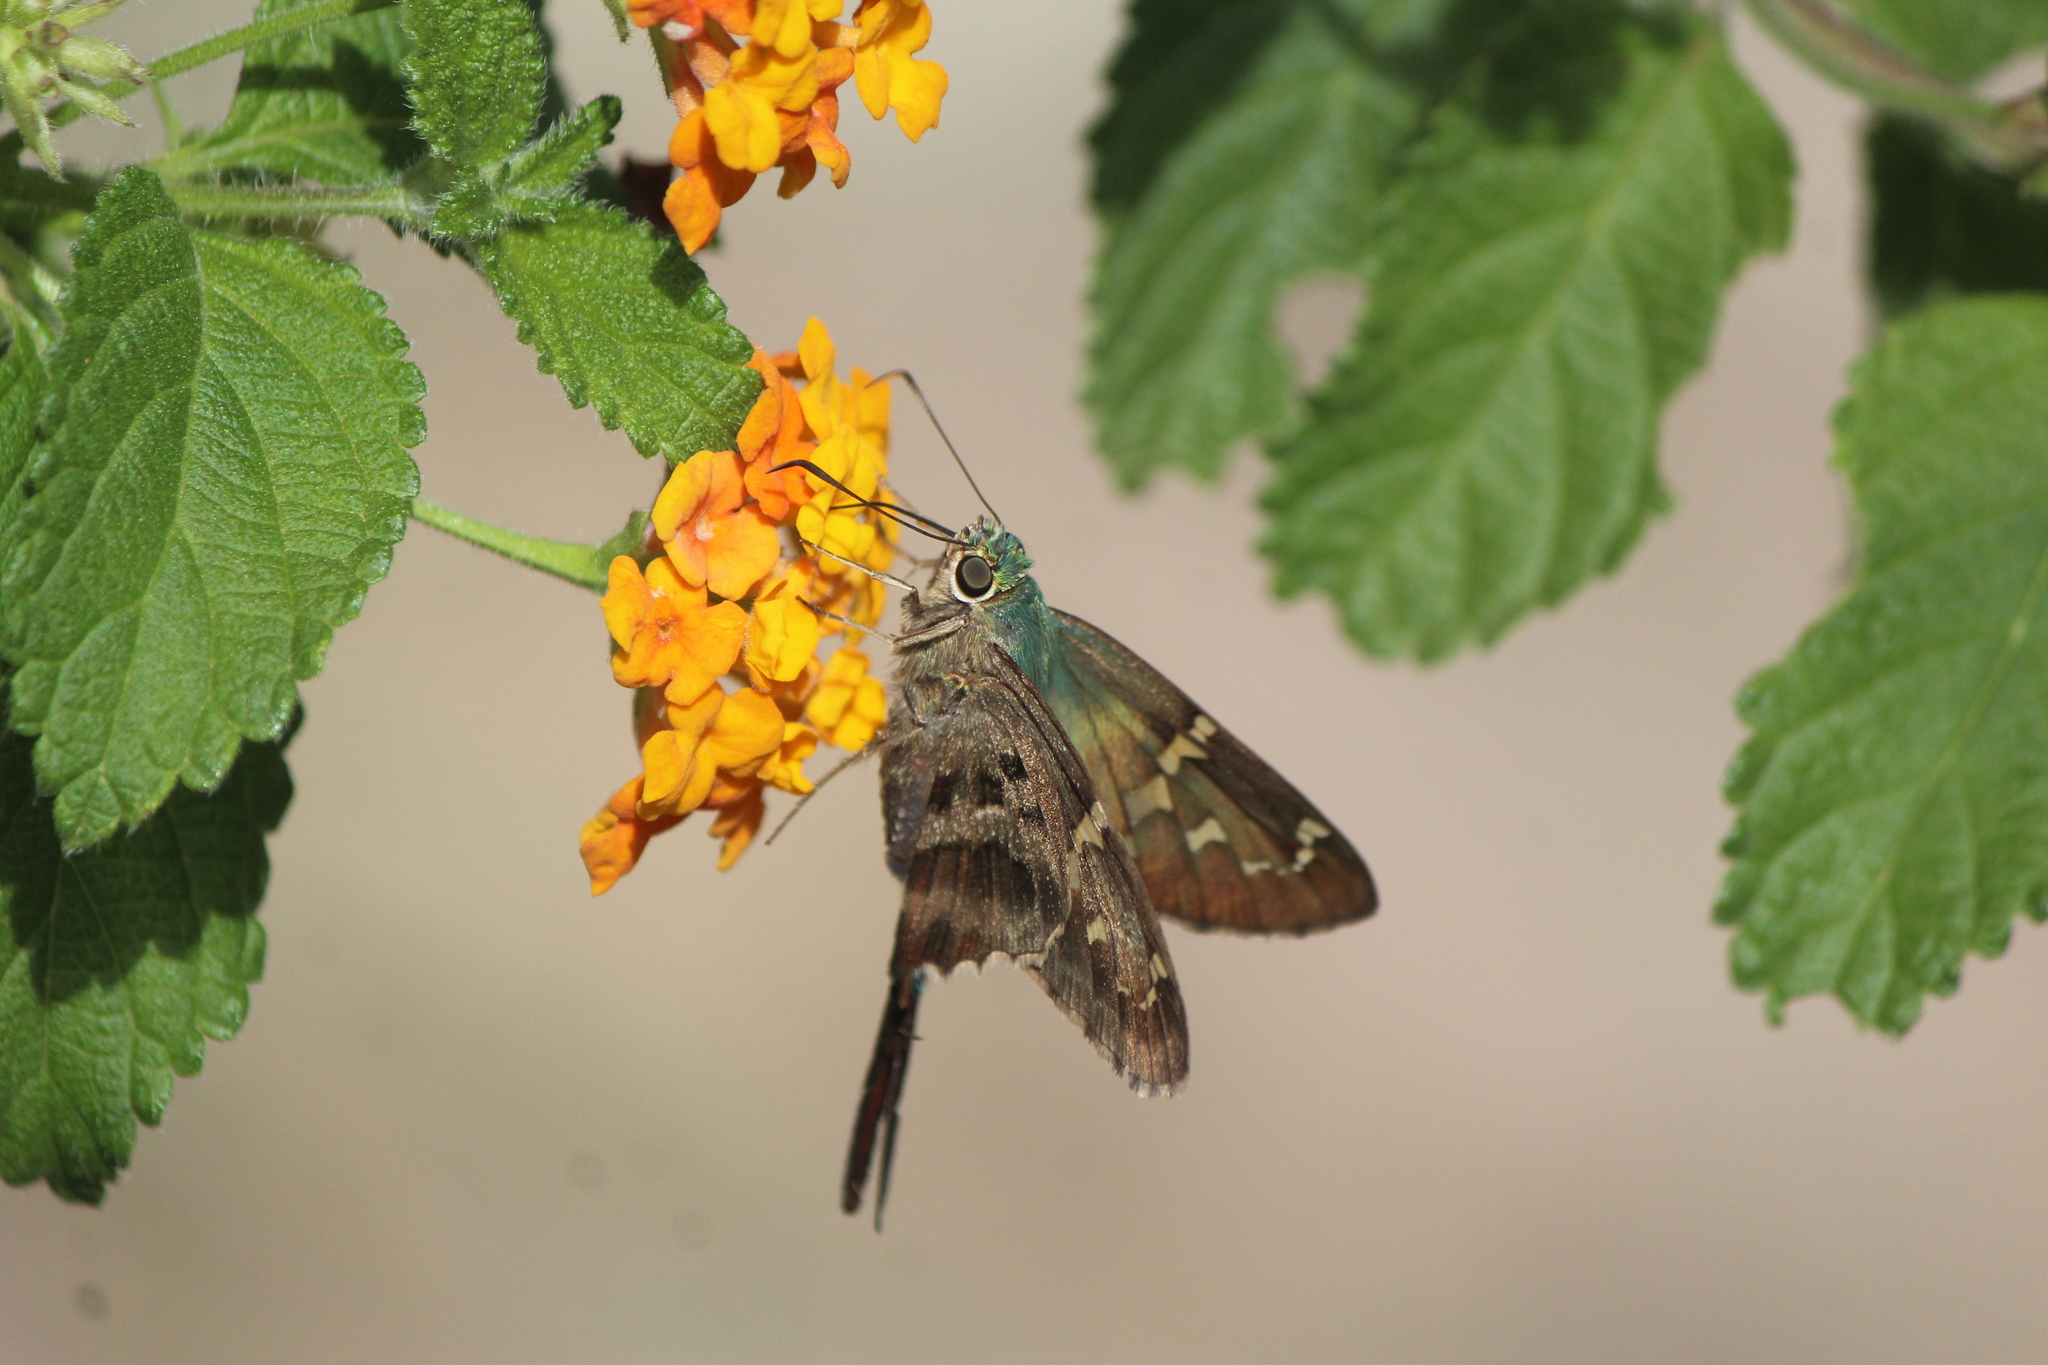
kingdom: Animalia
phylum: Arthropoda
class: Insecta
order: Lepidoptera
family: Hesperiidae
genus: Urbanus
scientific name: Urbanus proteus
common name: Long-tailed skipper
